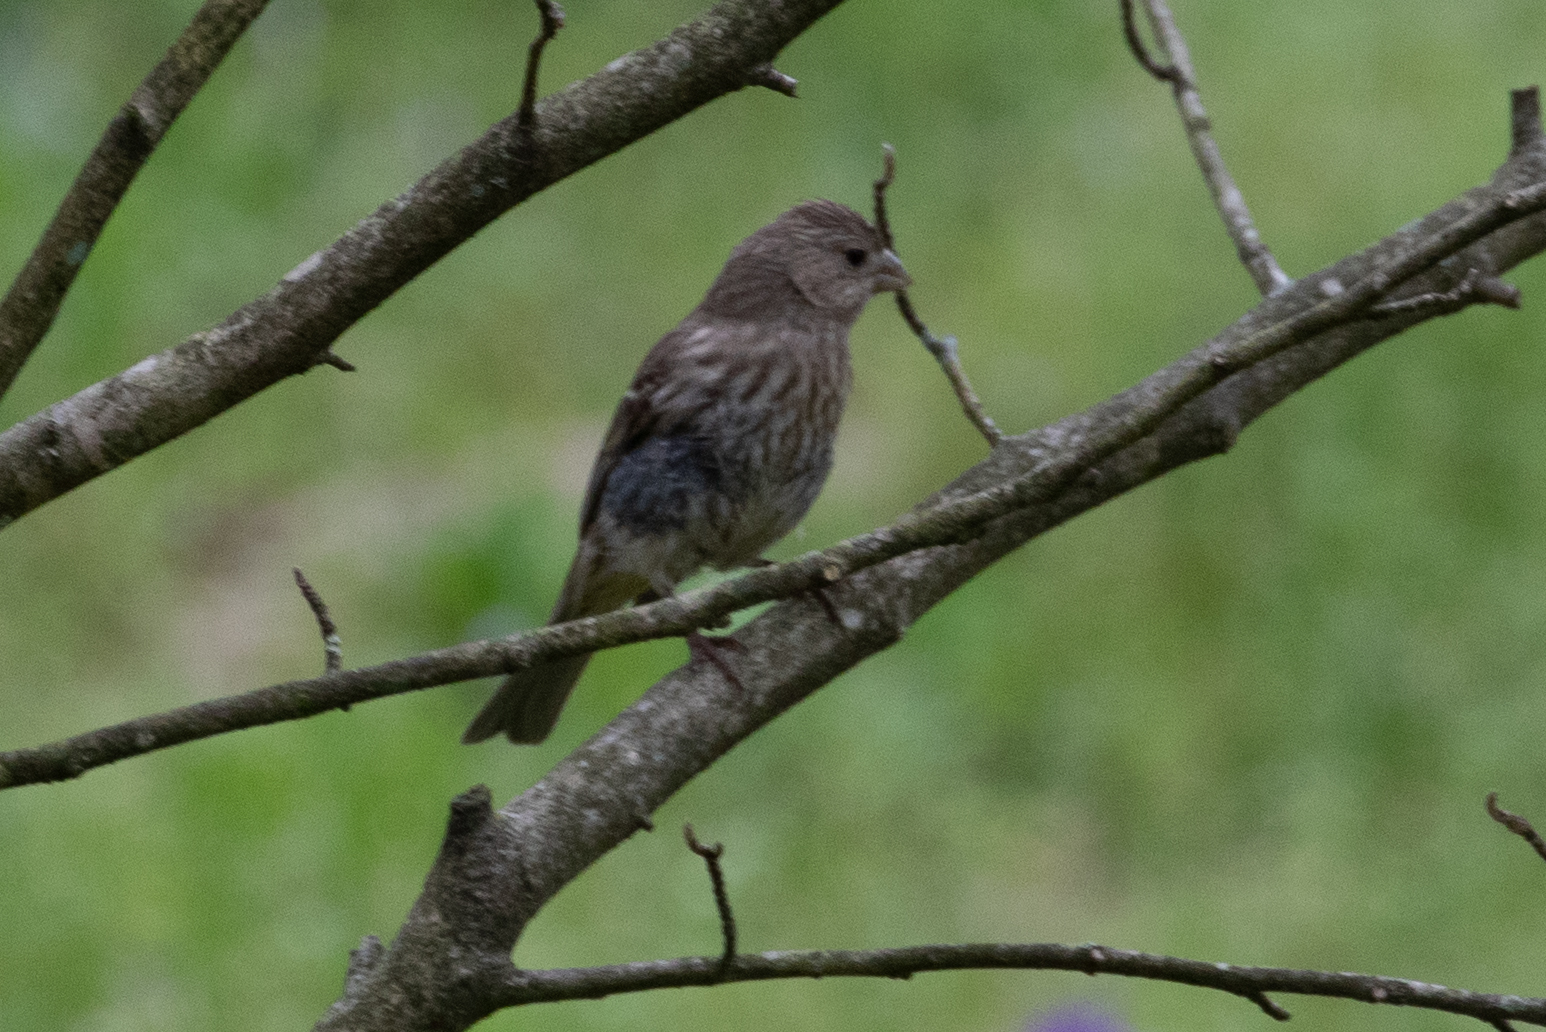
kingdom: Animalia
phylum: Chordata
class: Aves
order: Passeriformes
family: Fringillidae
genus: Haemorhous
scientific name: Haemorhous mexicanus
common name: House finch
